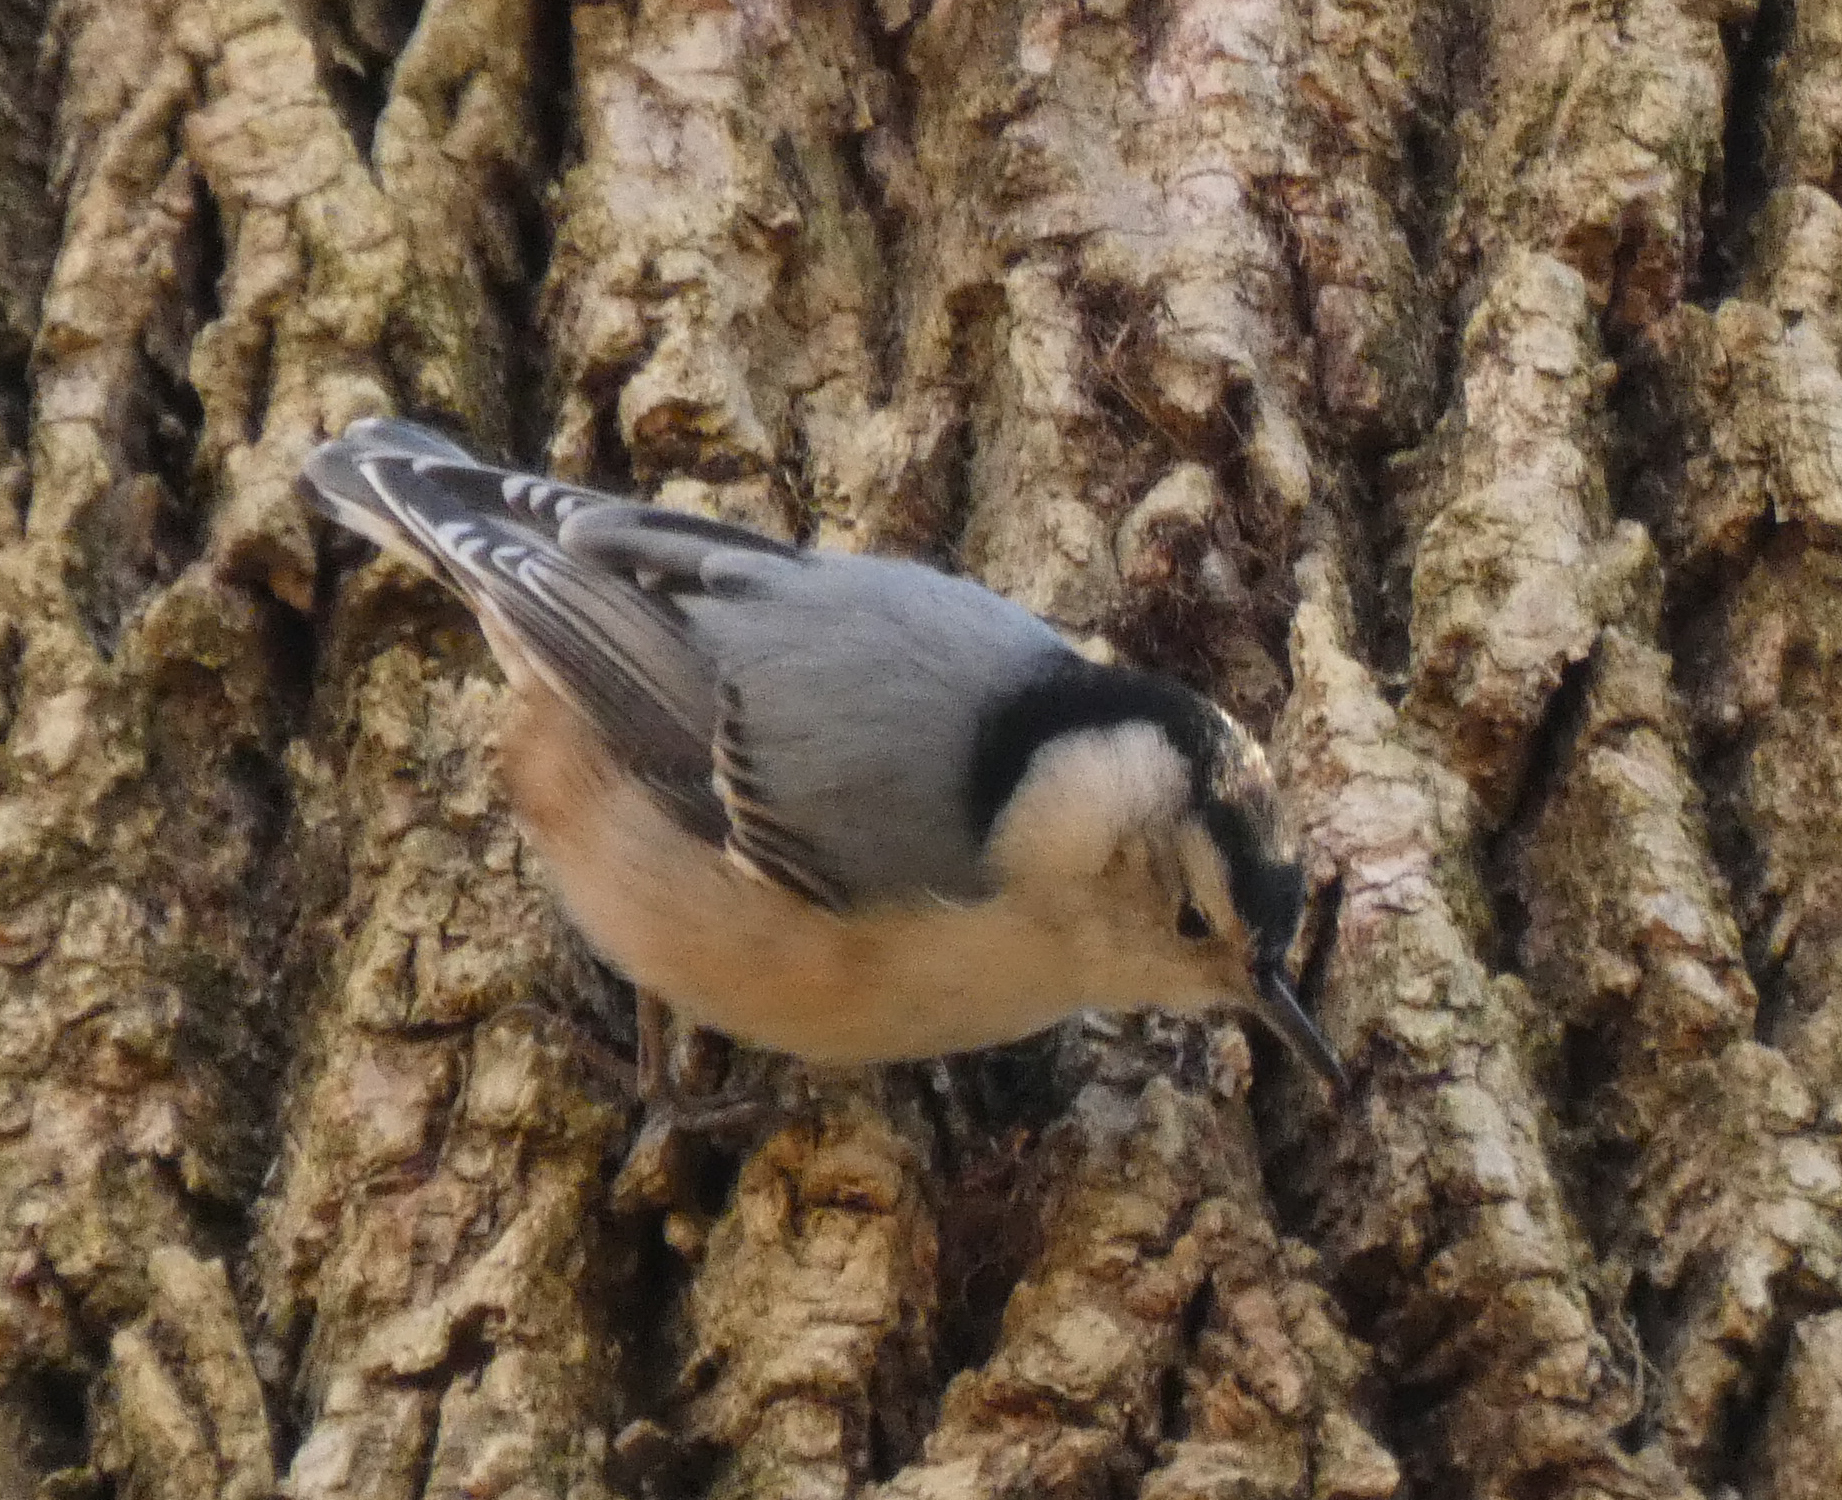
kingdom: Animalia
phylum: Chordata
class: Aves
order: Passeriformes
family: Sittidae
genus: Sitta
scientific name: Sitta carolinensis
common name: White-breasted nuthatch
